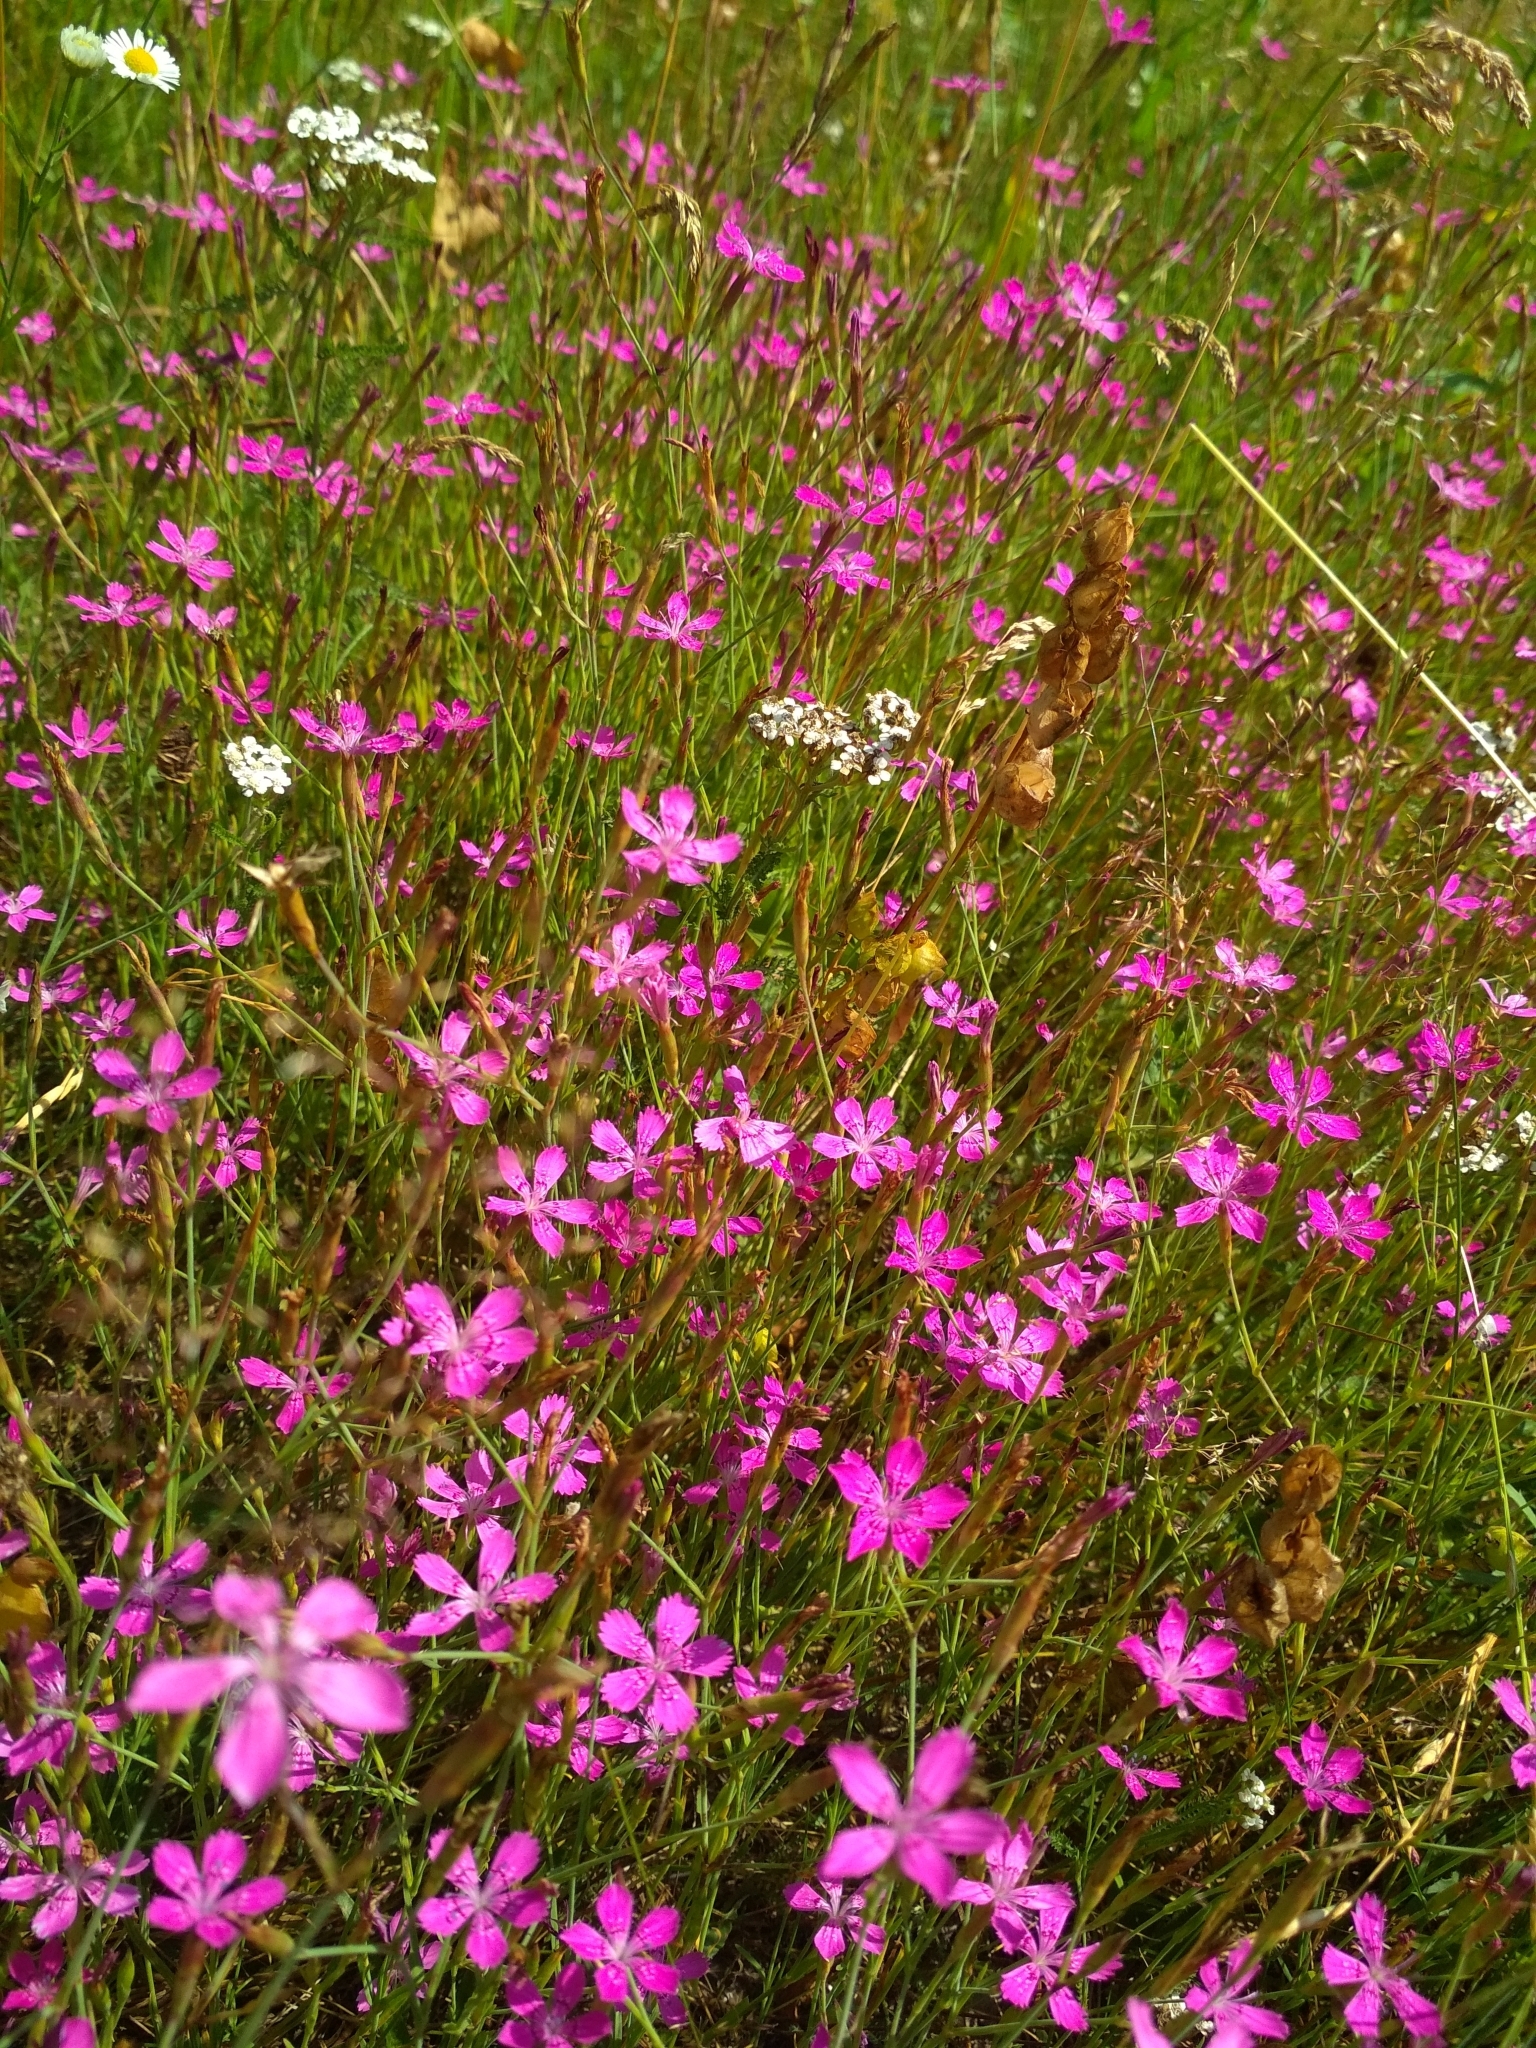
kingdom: Plantae
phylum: Tracheophyta
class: Magnoliopsida
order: Caryophyllales
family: Caryophyllaceae
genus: Dianthus
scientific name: Dianthus deltoides
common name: Maiden pink
